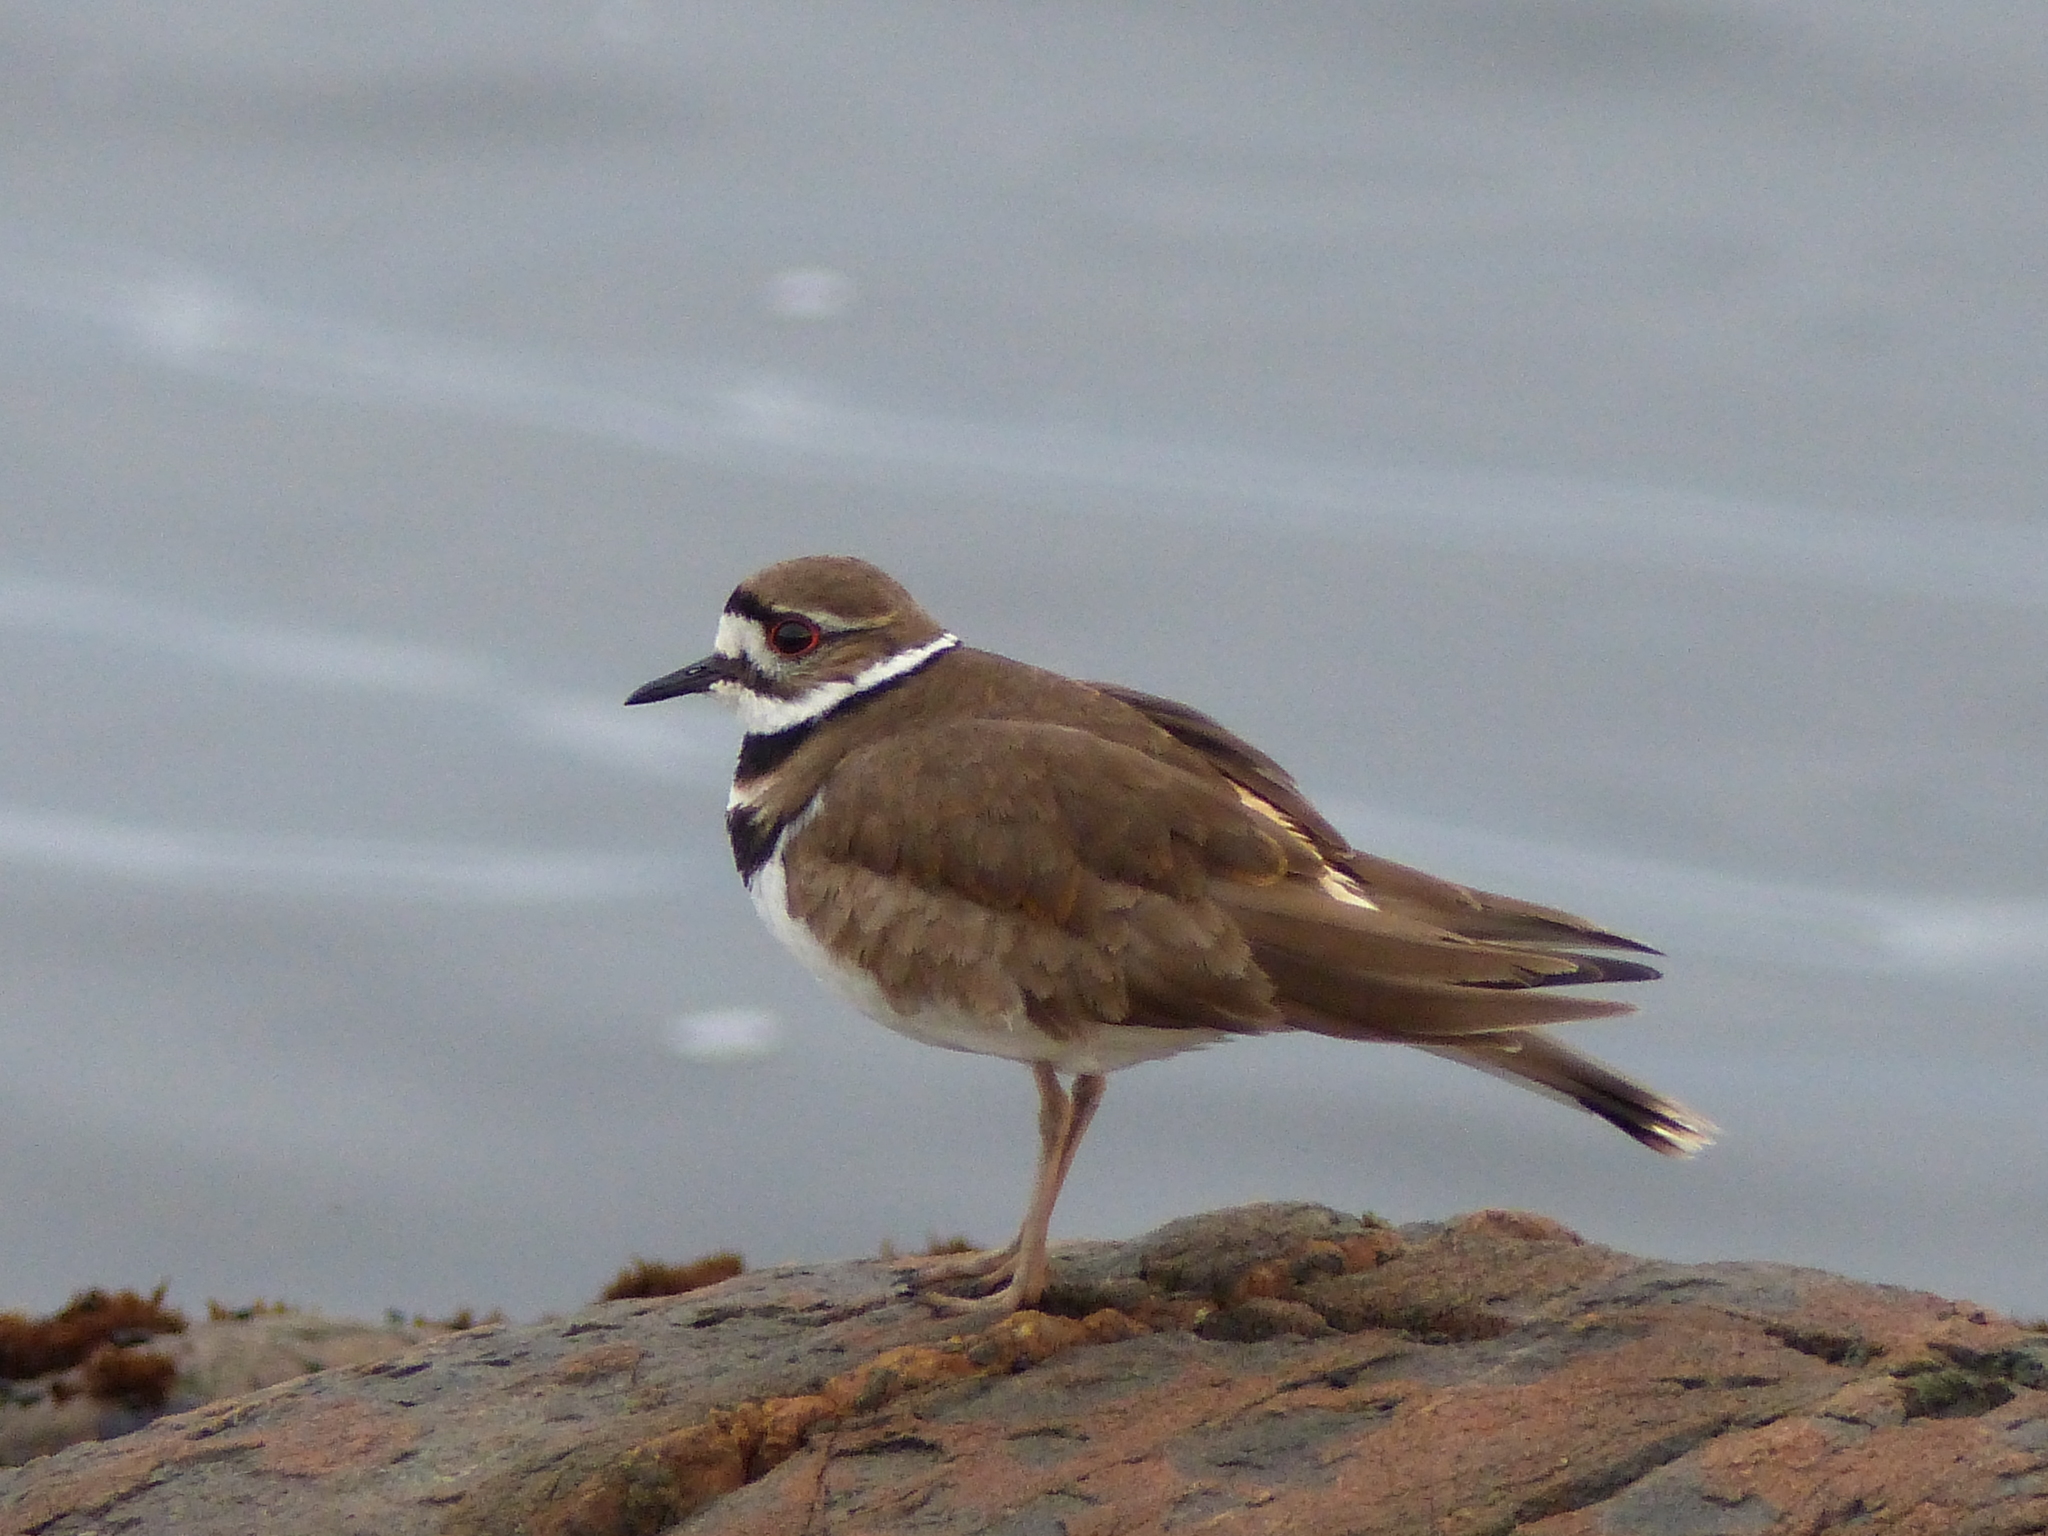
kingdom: Animalia
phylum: Chordata
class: Aves
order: Charadriiformes
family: Charadriidae
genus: Charadrius
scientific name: Charadrius vociferus
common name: Killdeer
